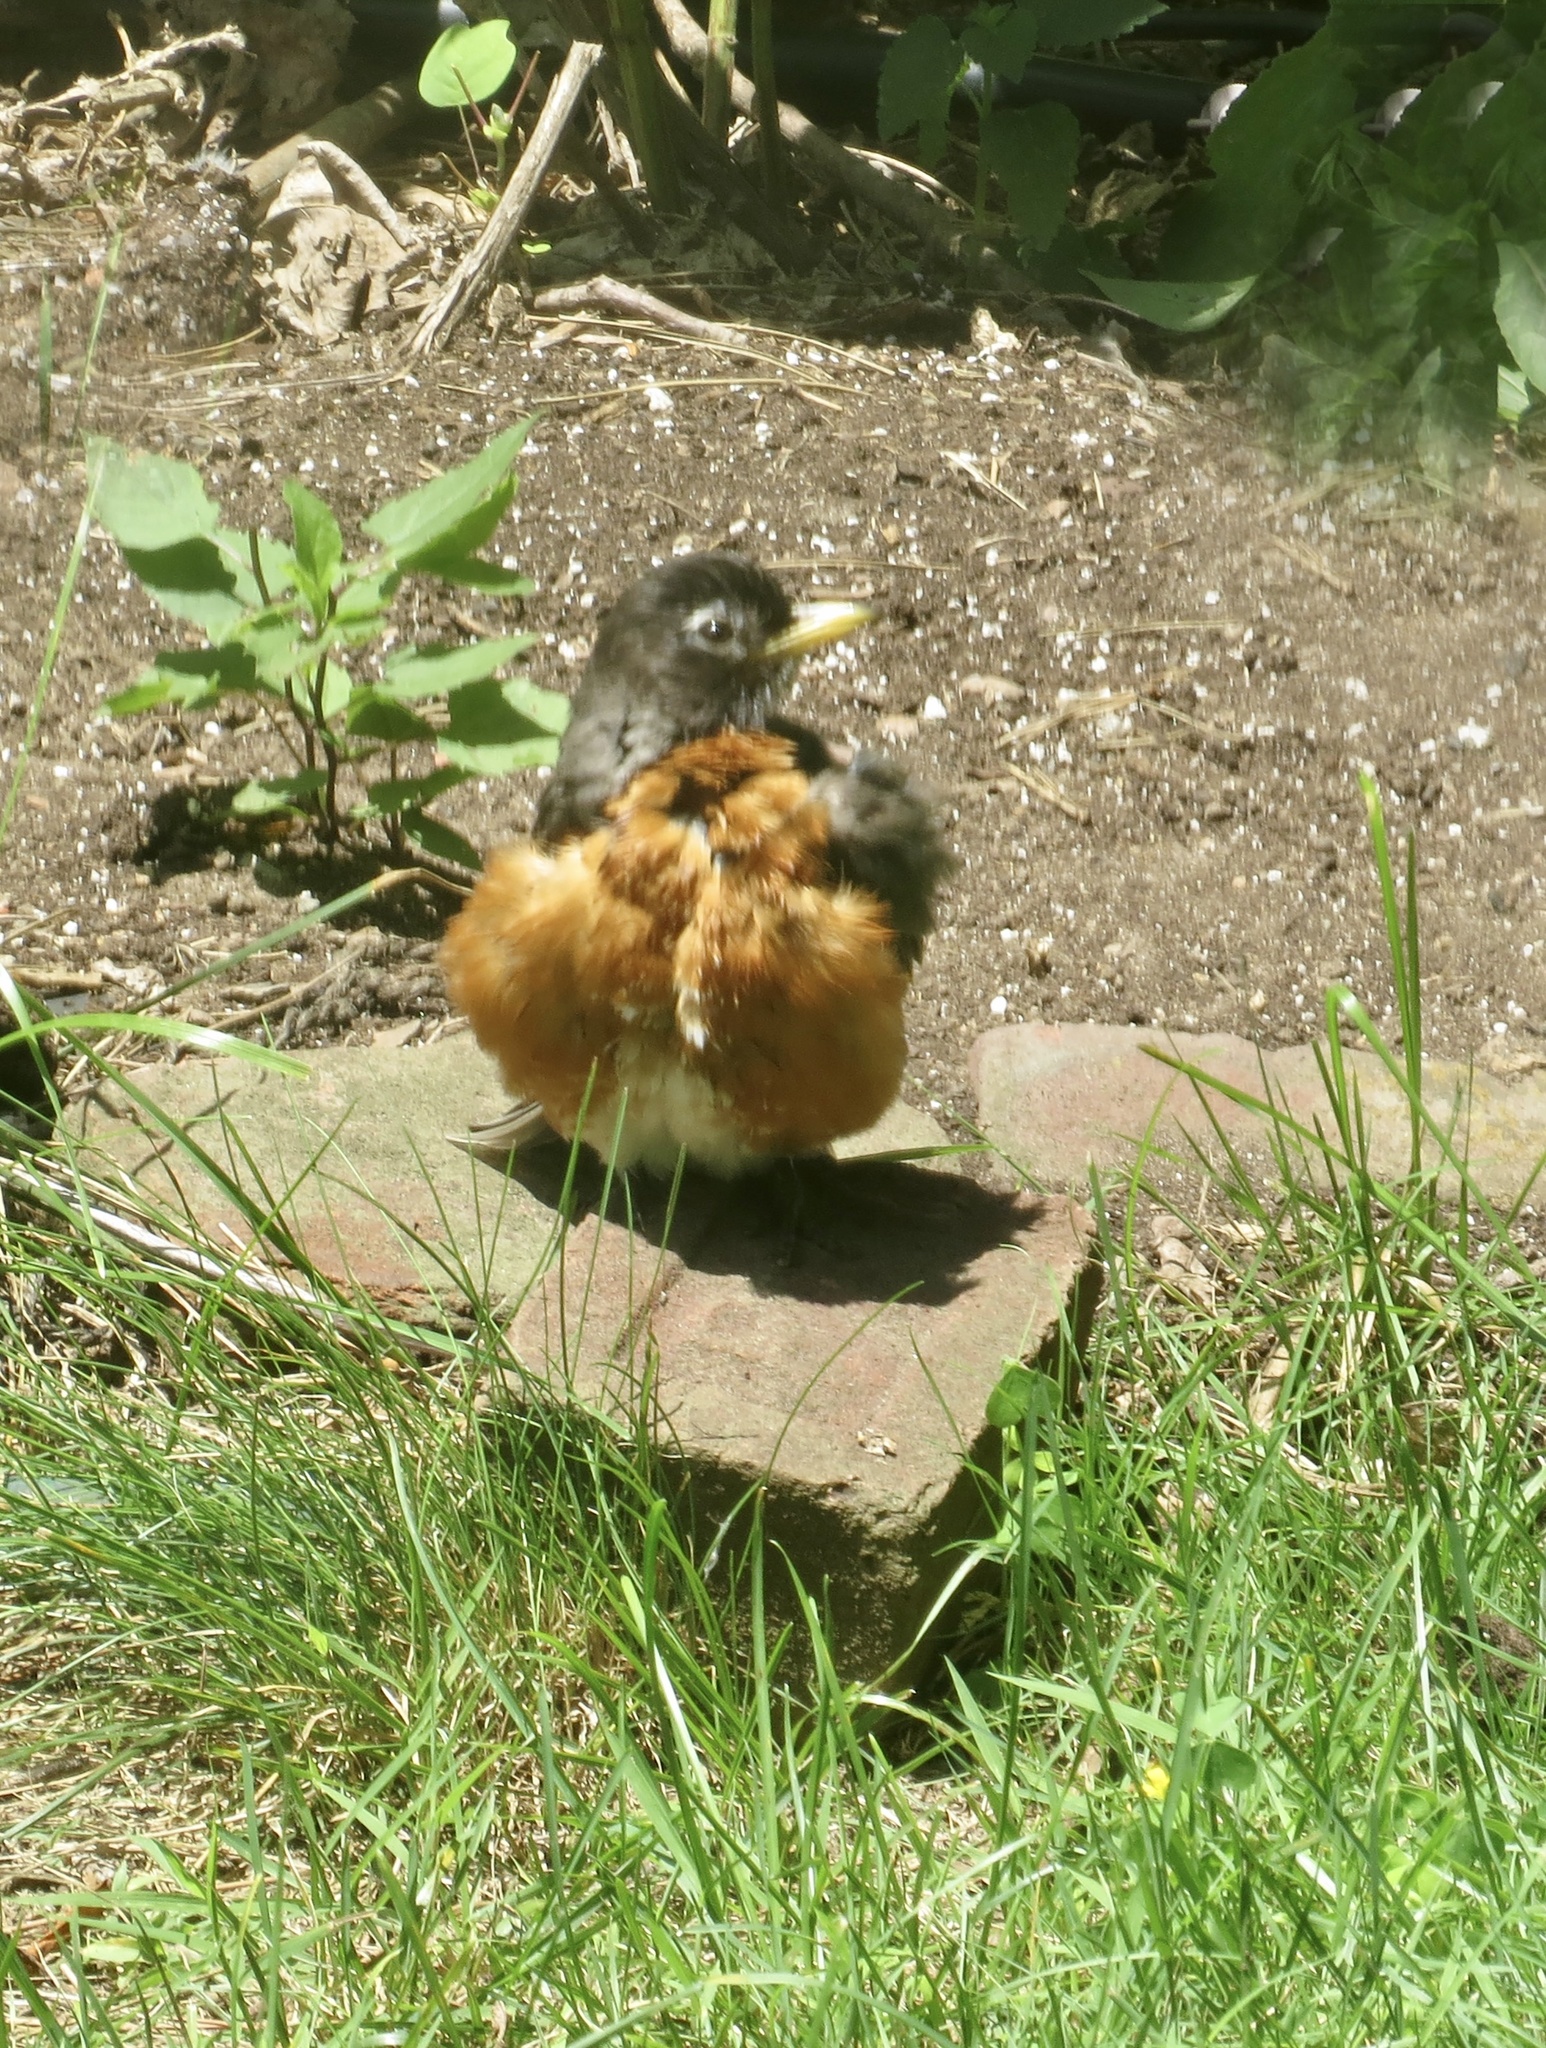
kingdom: Animalia
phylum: Chordata
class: Aves
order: Passeriformes
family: Turdidae
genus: Turdus
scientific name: Turdus migratorius
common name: American robin
